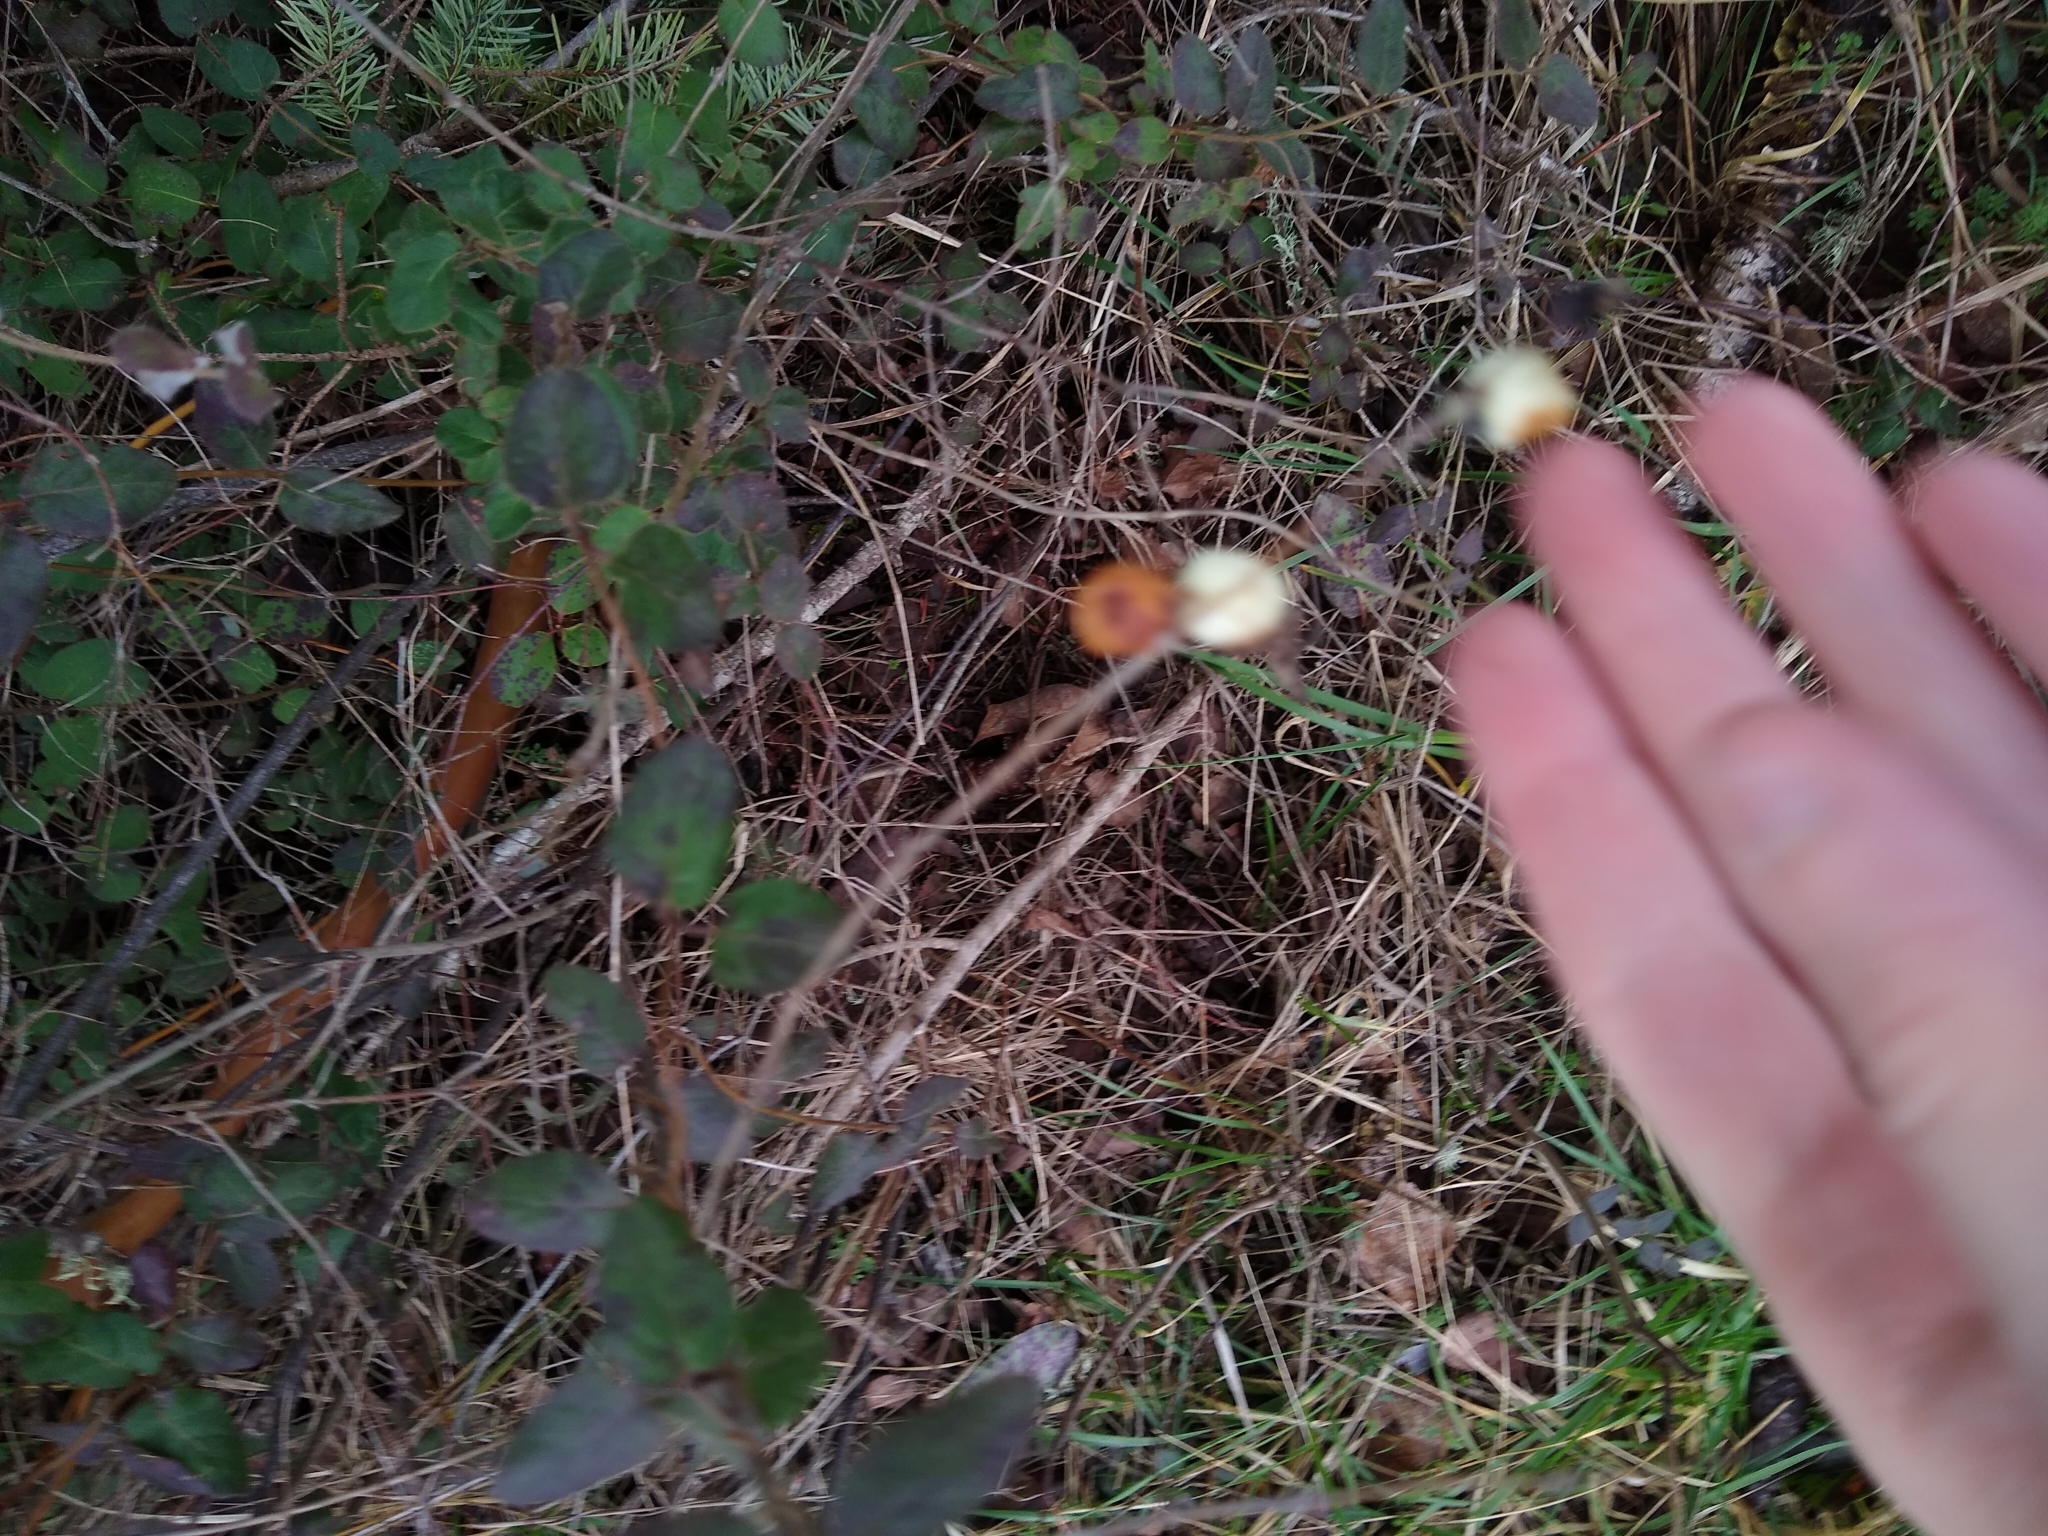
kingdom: Plantae
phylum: Tracheophyta
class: Magnoliopsida
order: Dipsacales
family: Caprifoliaceae
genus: Symphoricarpos
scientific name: Symphoricarpos albus
